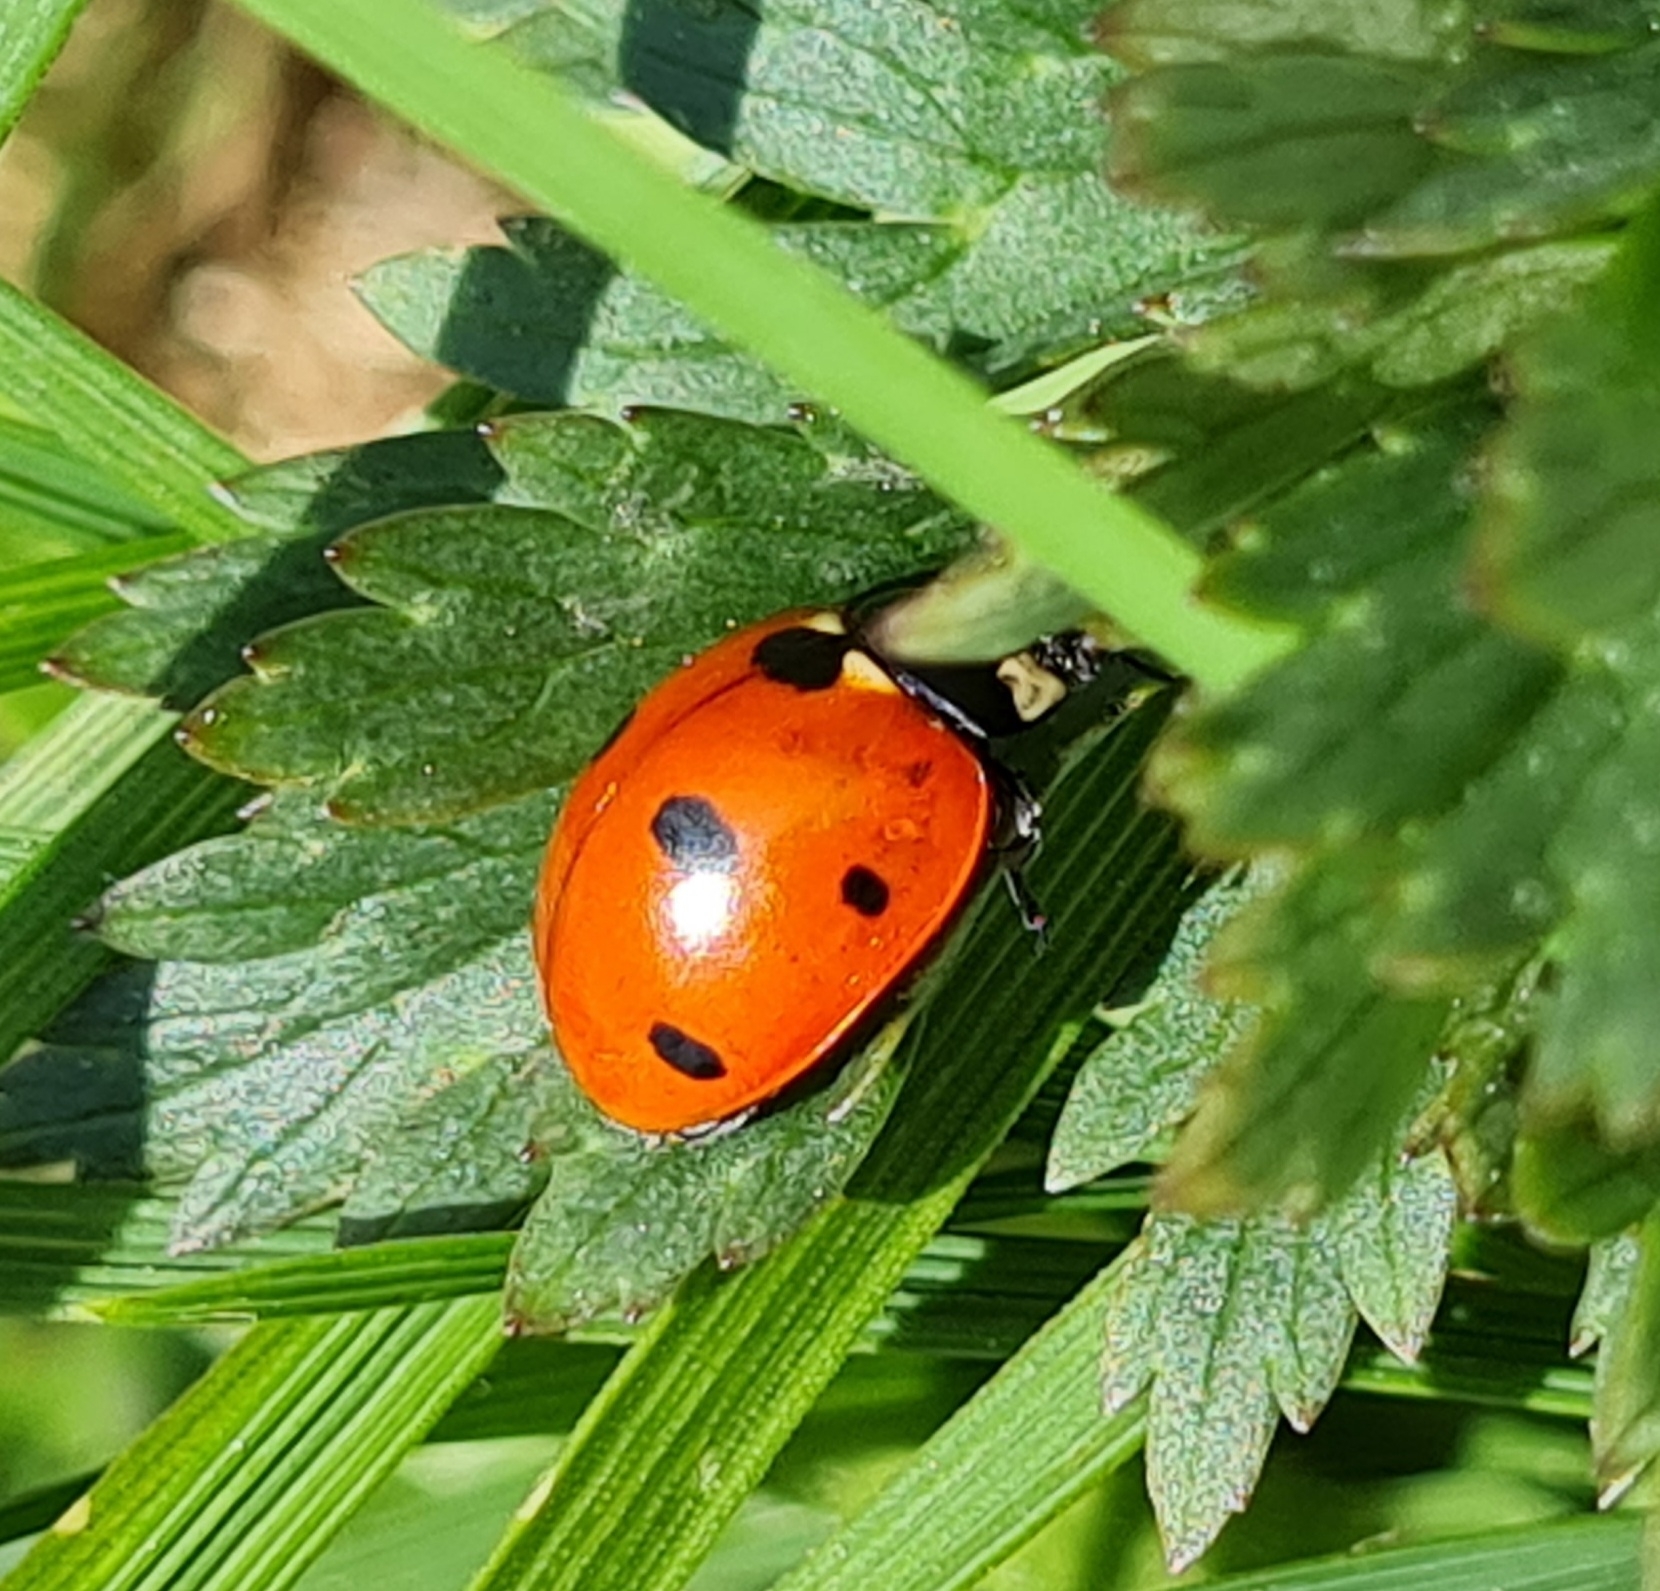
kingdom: Animalia
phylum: Arthropoda
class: Insecta
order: Coleoptera
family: Coccinellidae
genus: Coccinella
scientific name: Coccinella septempunctata
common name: Sevenspotted lady beetle
